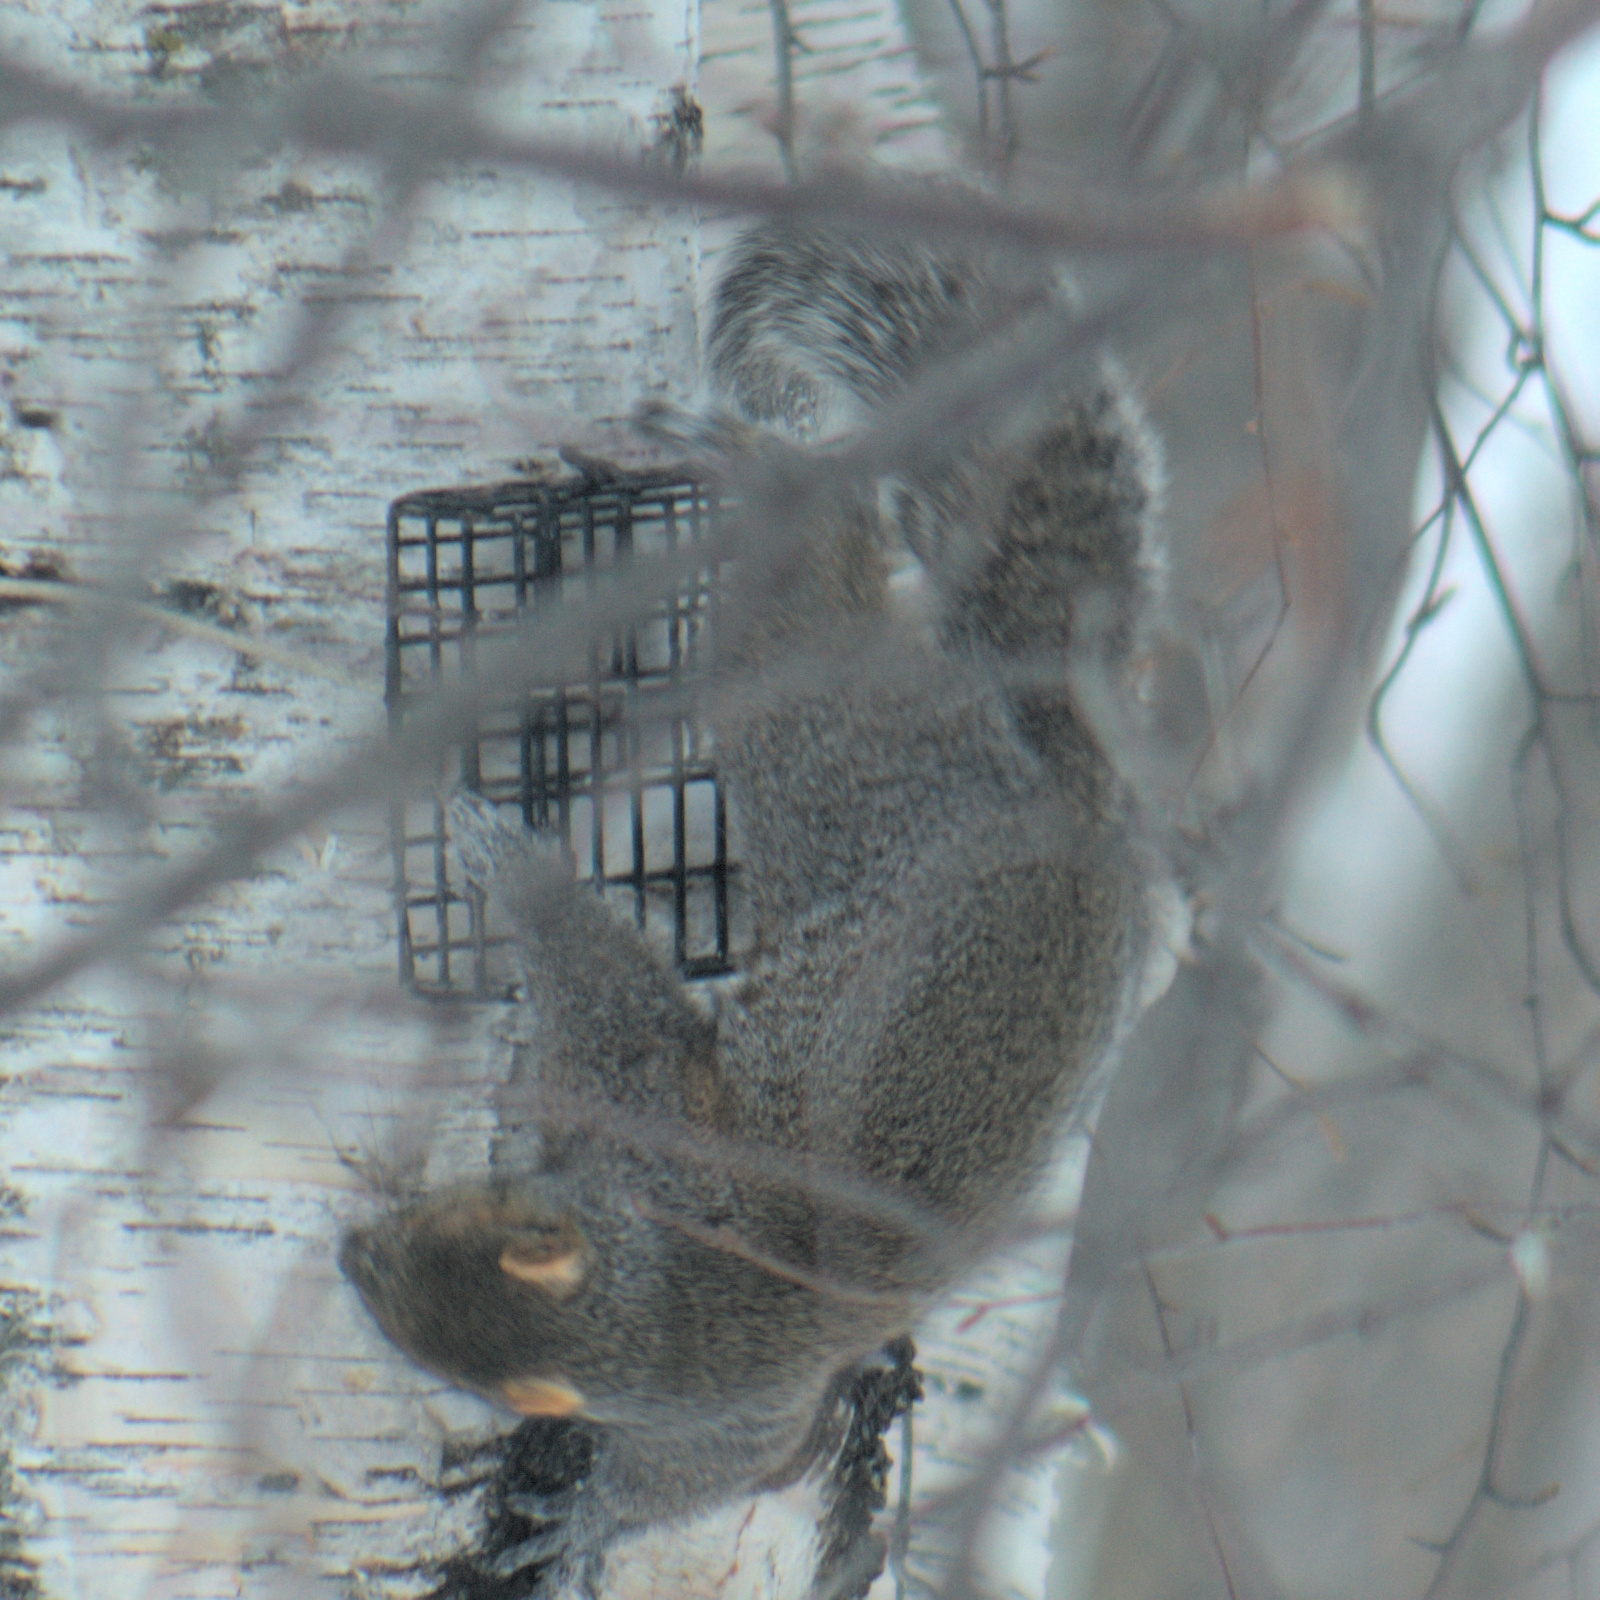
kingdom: Animalia
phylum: Chordata
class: Mammalia
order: Rodentia
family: Sciuridae
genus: Sciurus
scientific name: Sciurus carolinensis
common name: Eastern gray squirrel
